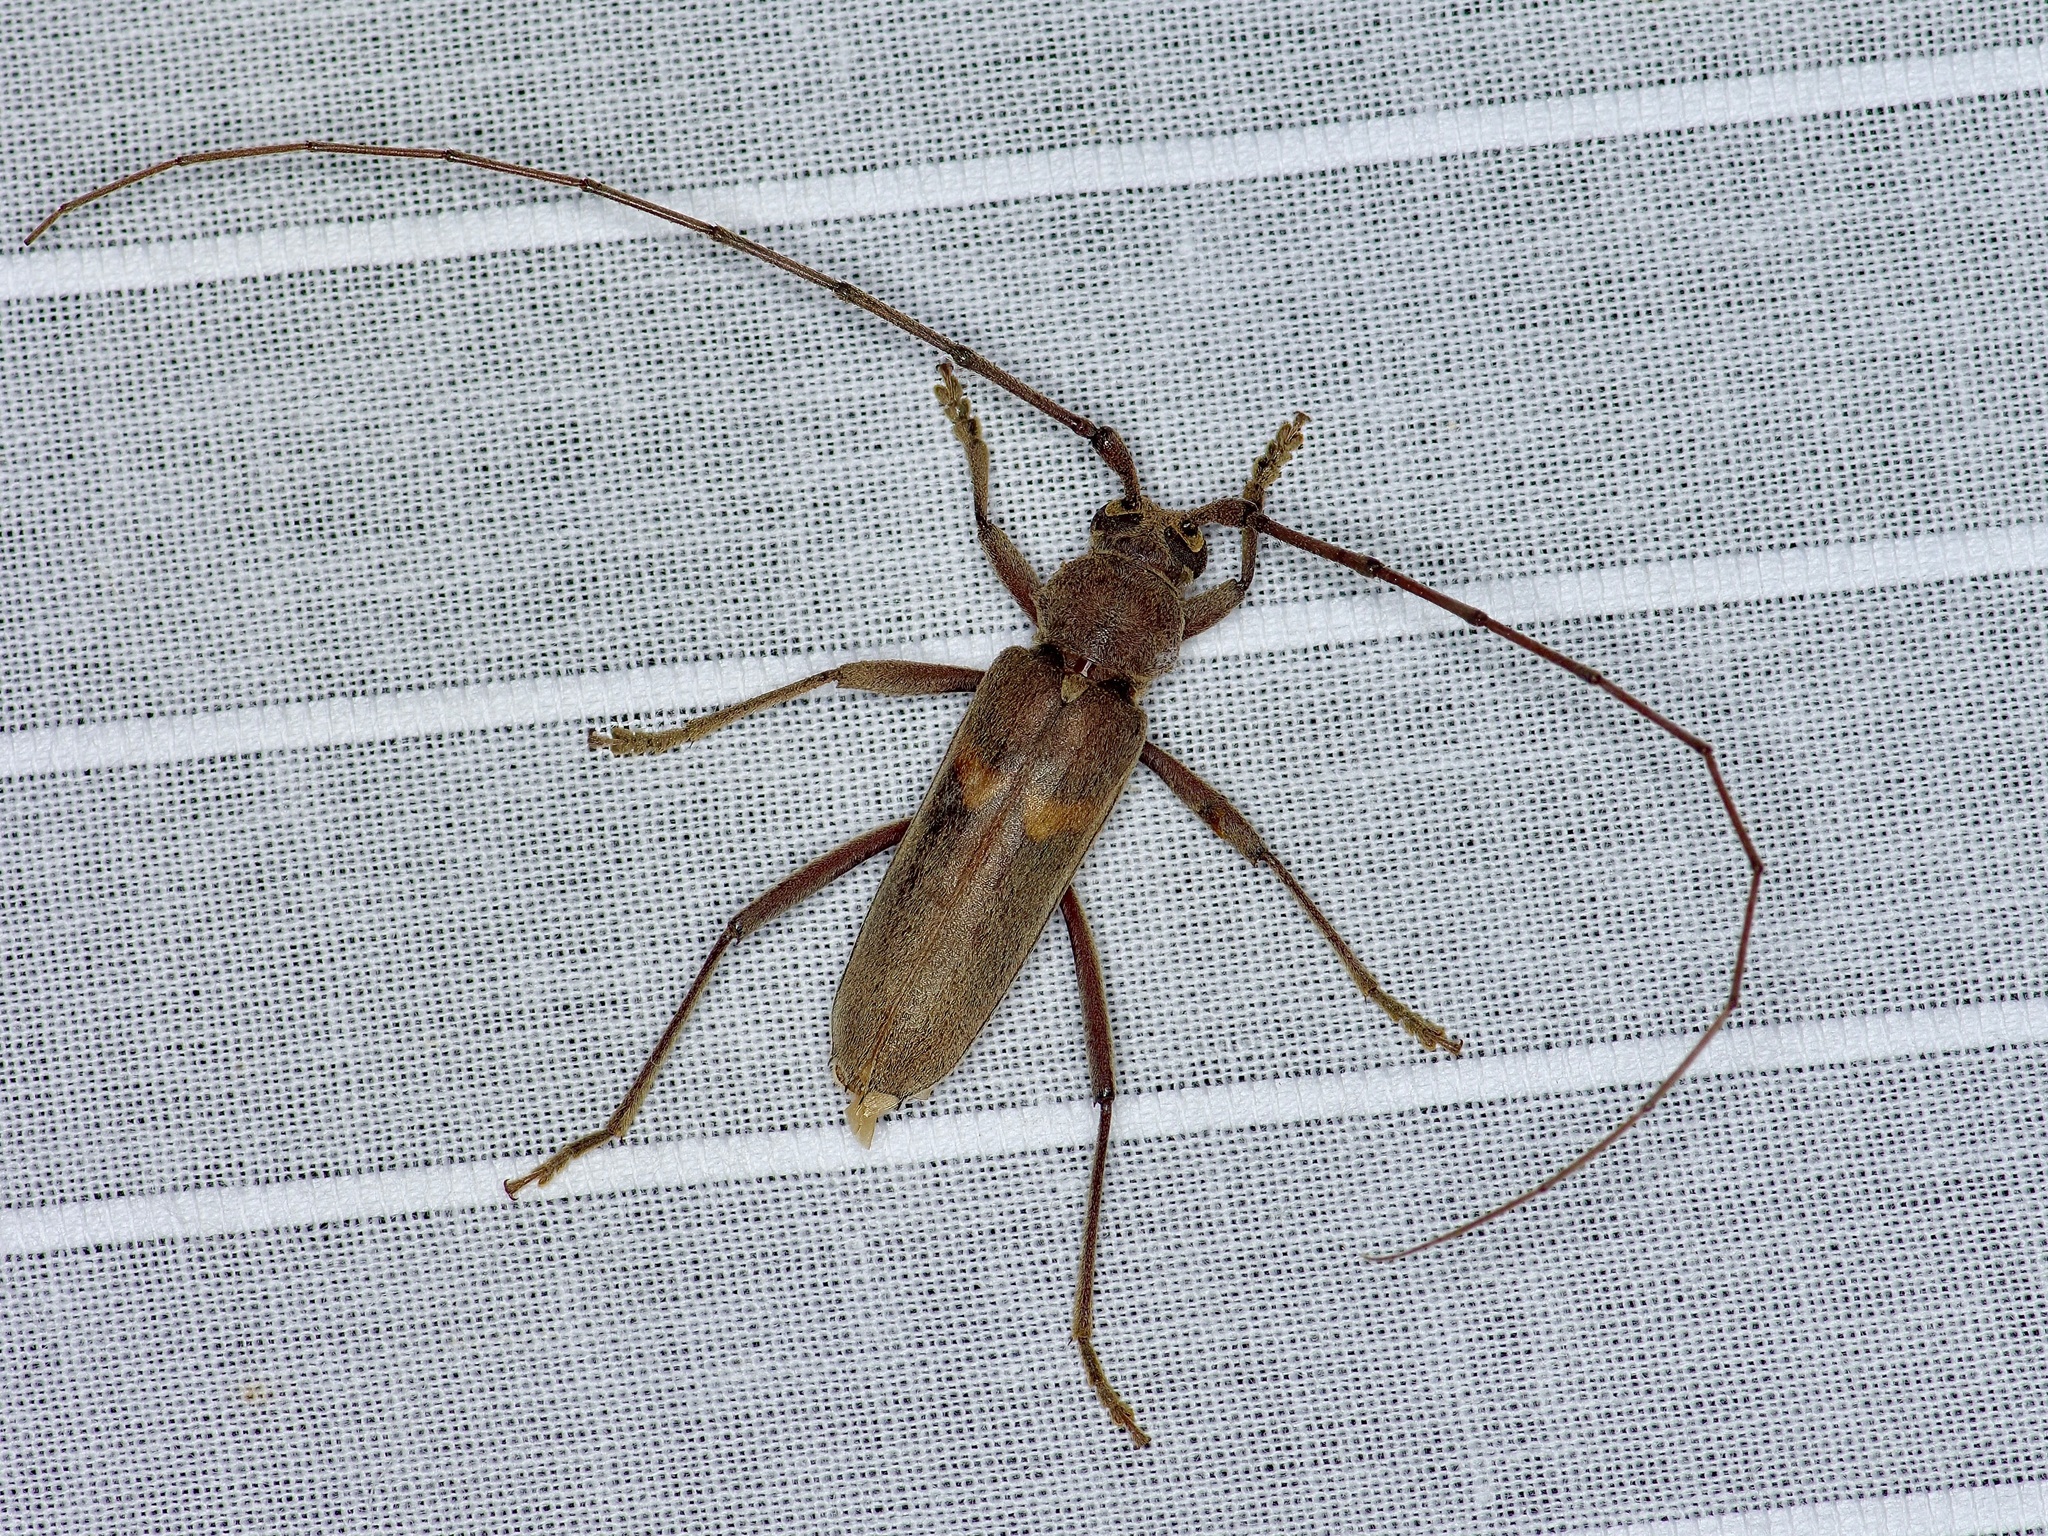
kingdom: Animalia
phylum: Arthropoda
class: Insecta
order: Coleoptera
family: Cerambycidae
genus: Knulliana
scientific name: Knulliana cincta
